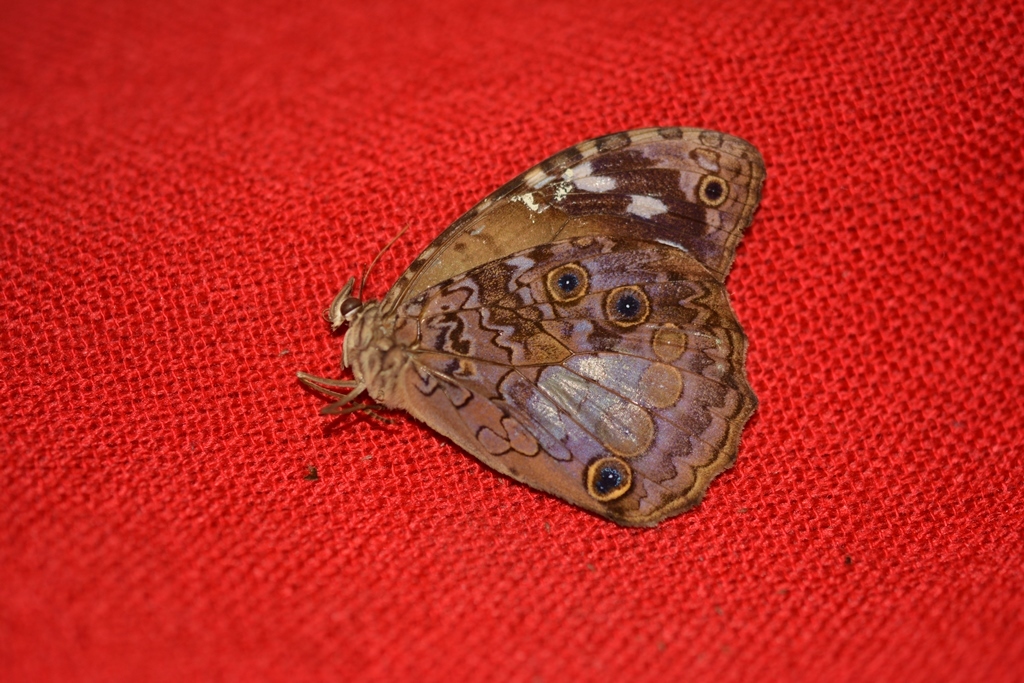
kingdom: Animalia
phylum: Arthropoda
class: Insecta
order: Lepidoptera
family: Nymphalidae
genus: Manataria
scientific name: Manataria maculata
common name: White-spotted satyr
